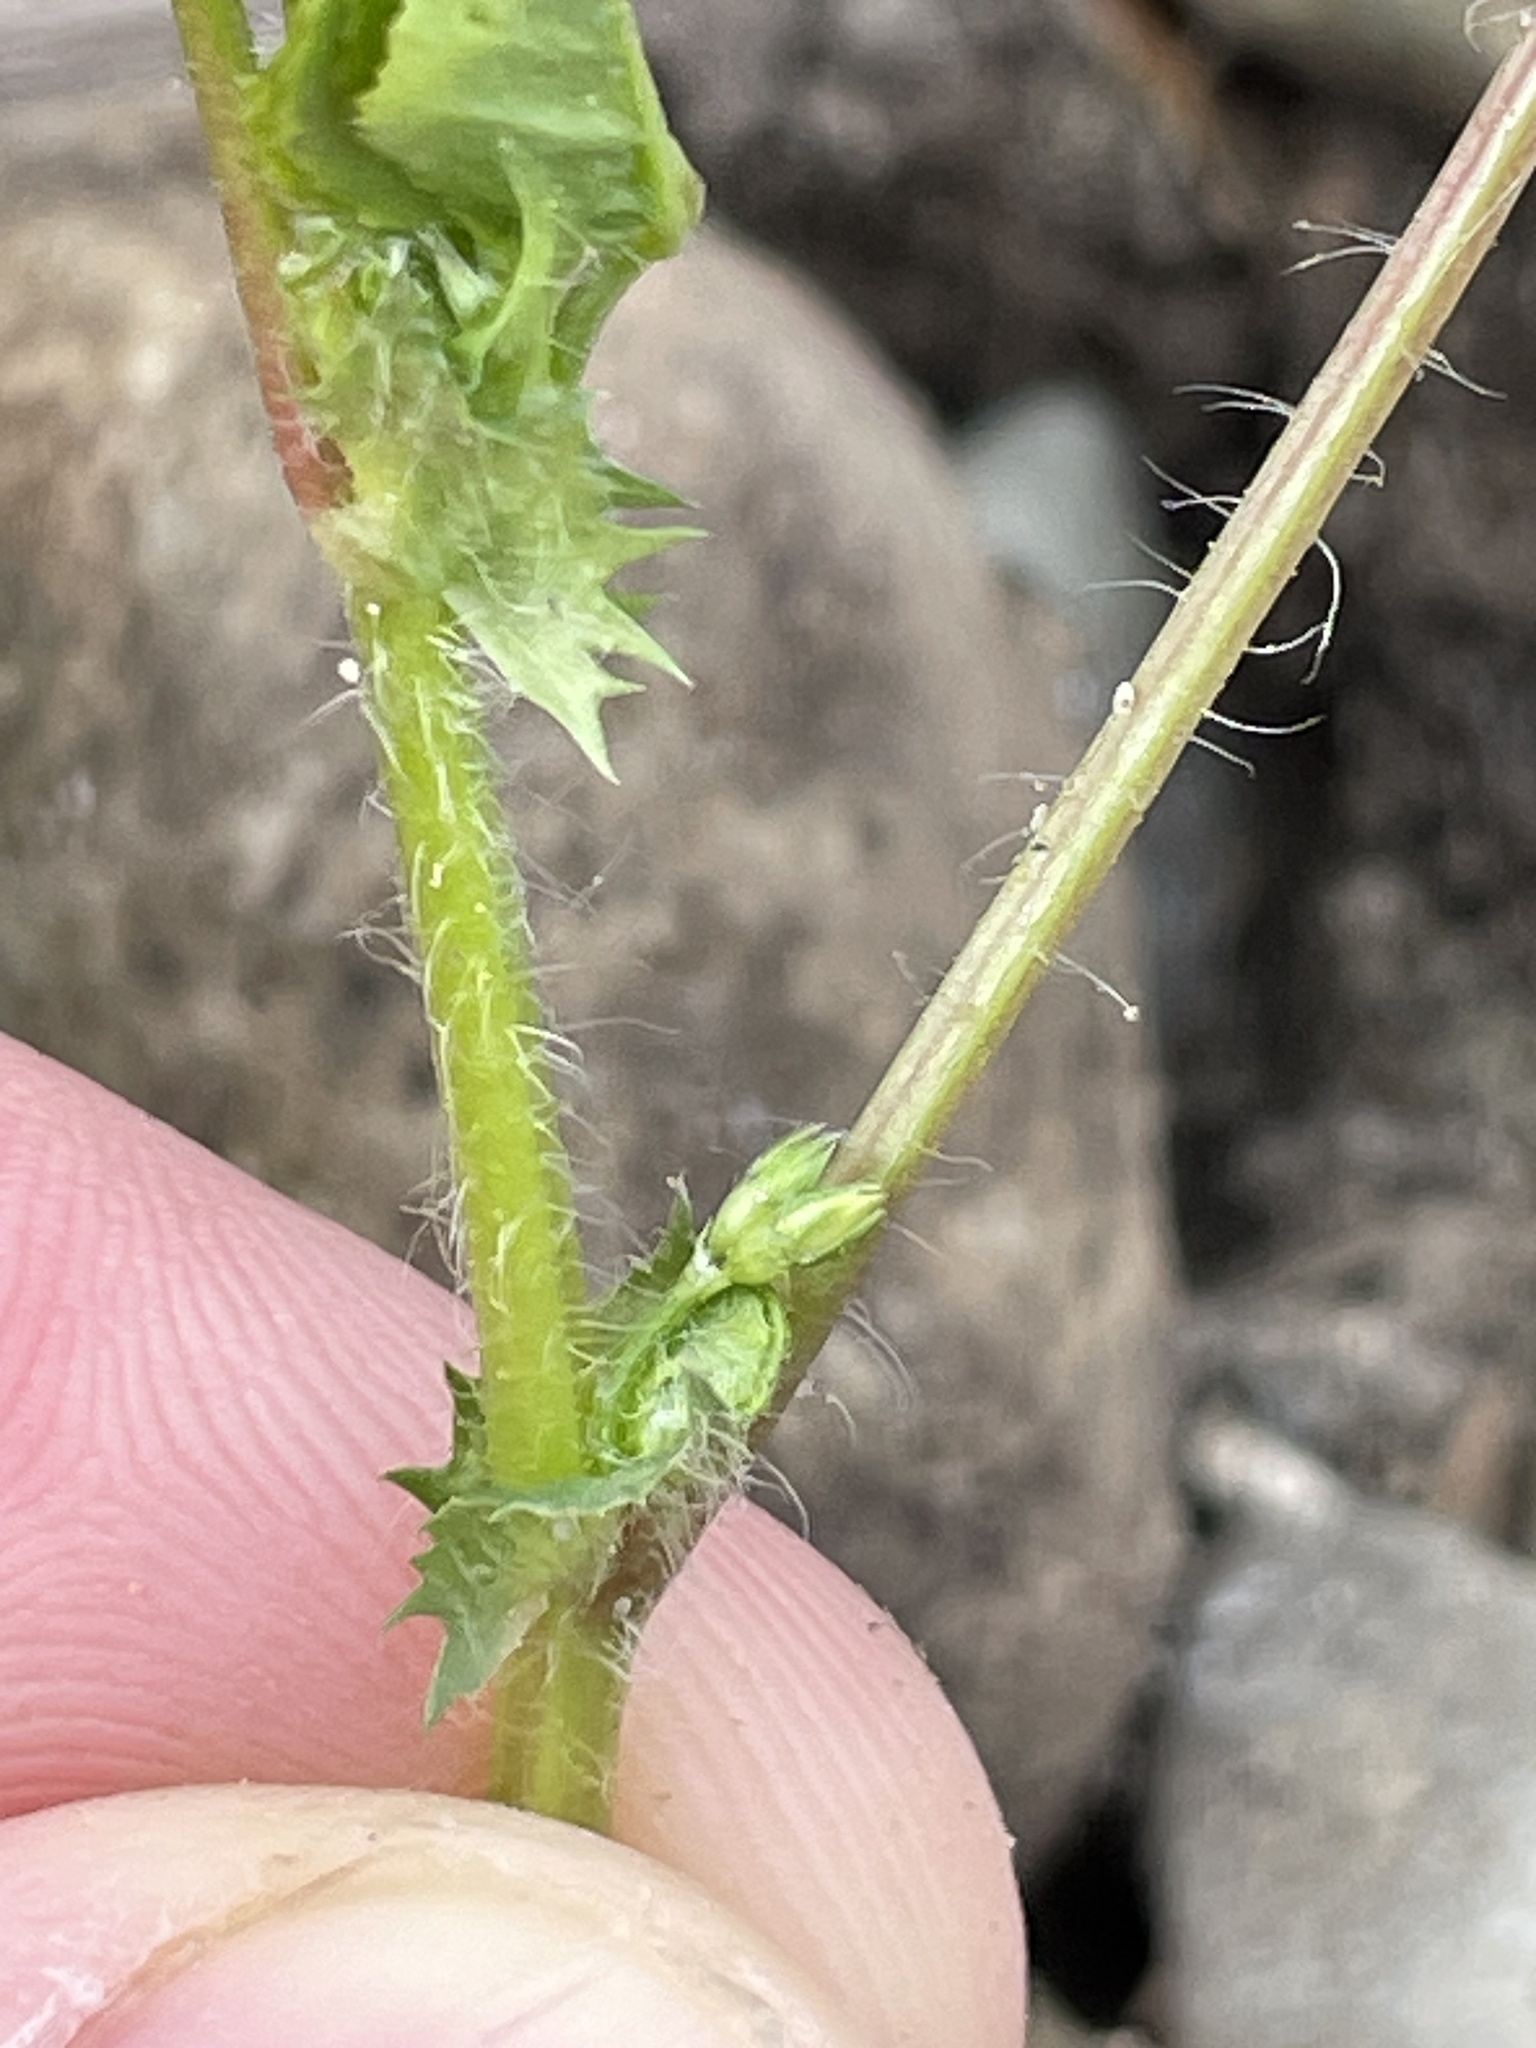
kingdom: Plantae
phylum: Tracheophyta
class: Magnoliopsida
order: Fabales
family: Fabaceae
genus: Medicago
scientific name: Medicago arabica
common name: Spotted medick
